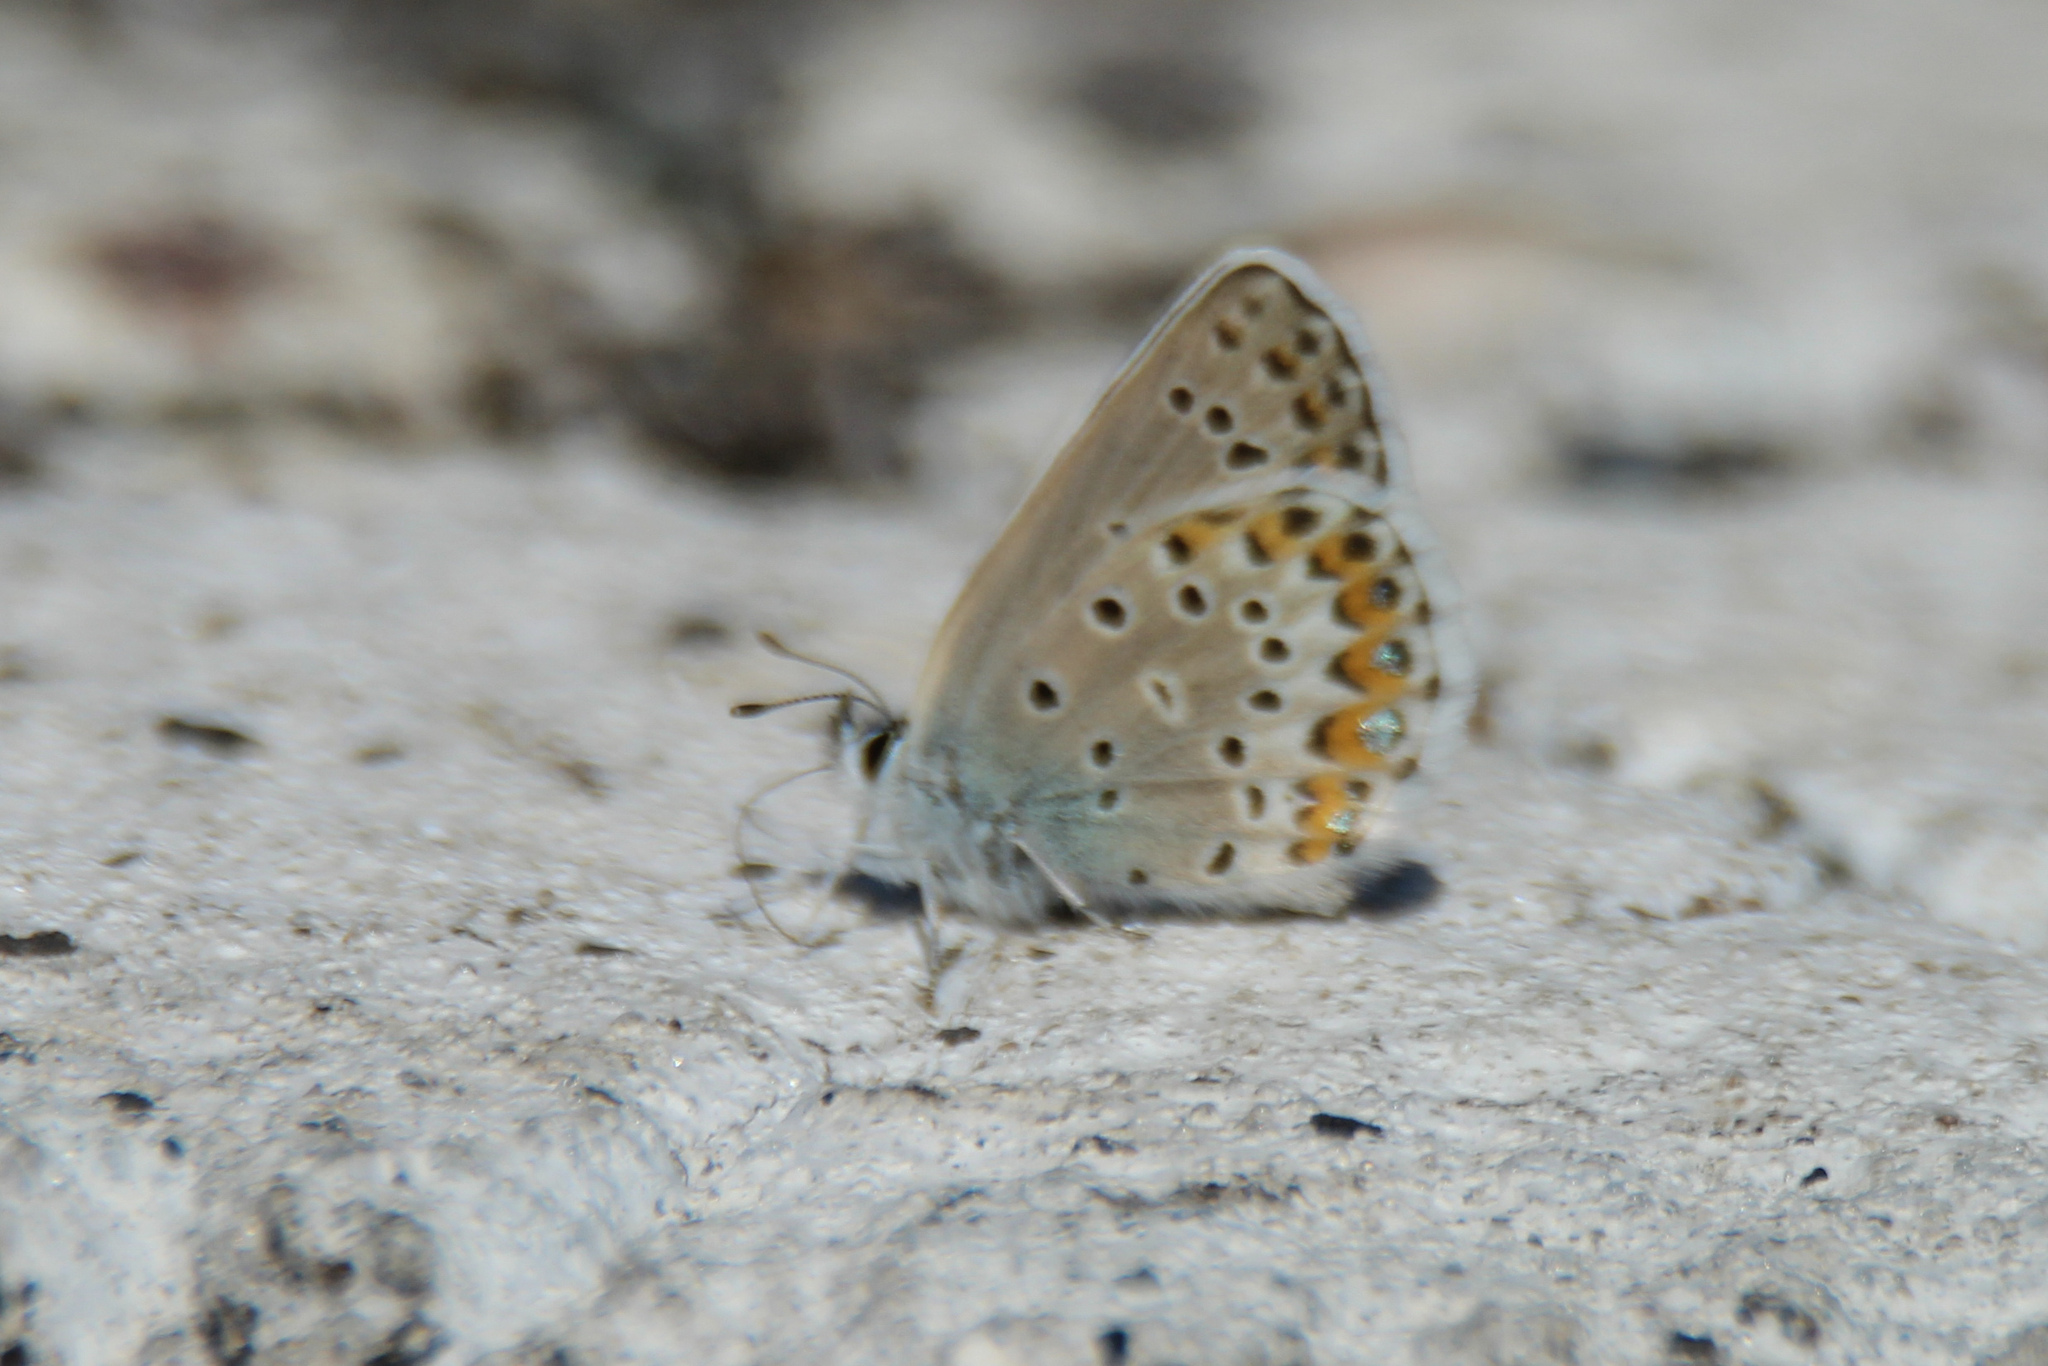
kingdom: Animalia
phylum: Arthropoda
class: Insecta
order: Lepidoptera
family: Lycaenidae
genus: Plebejus
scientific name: Plebejus argyrognomon
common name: Reverdin's blue
